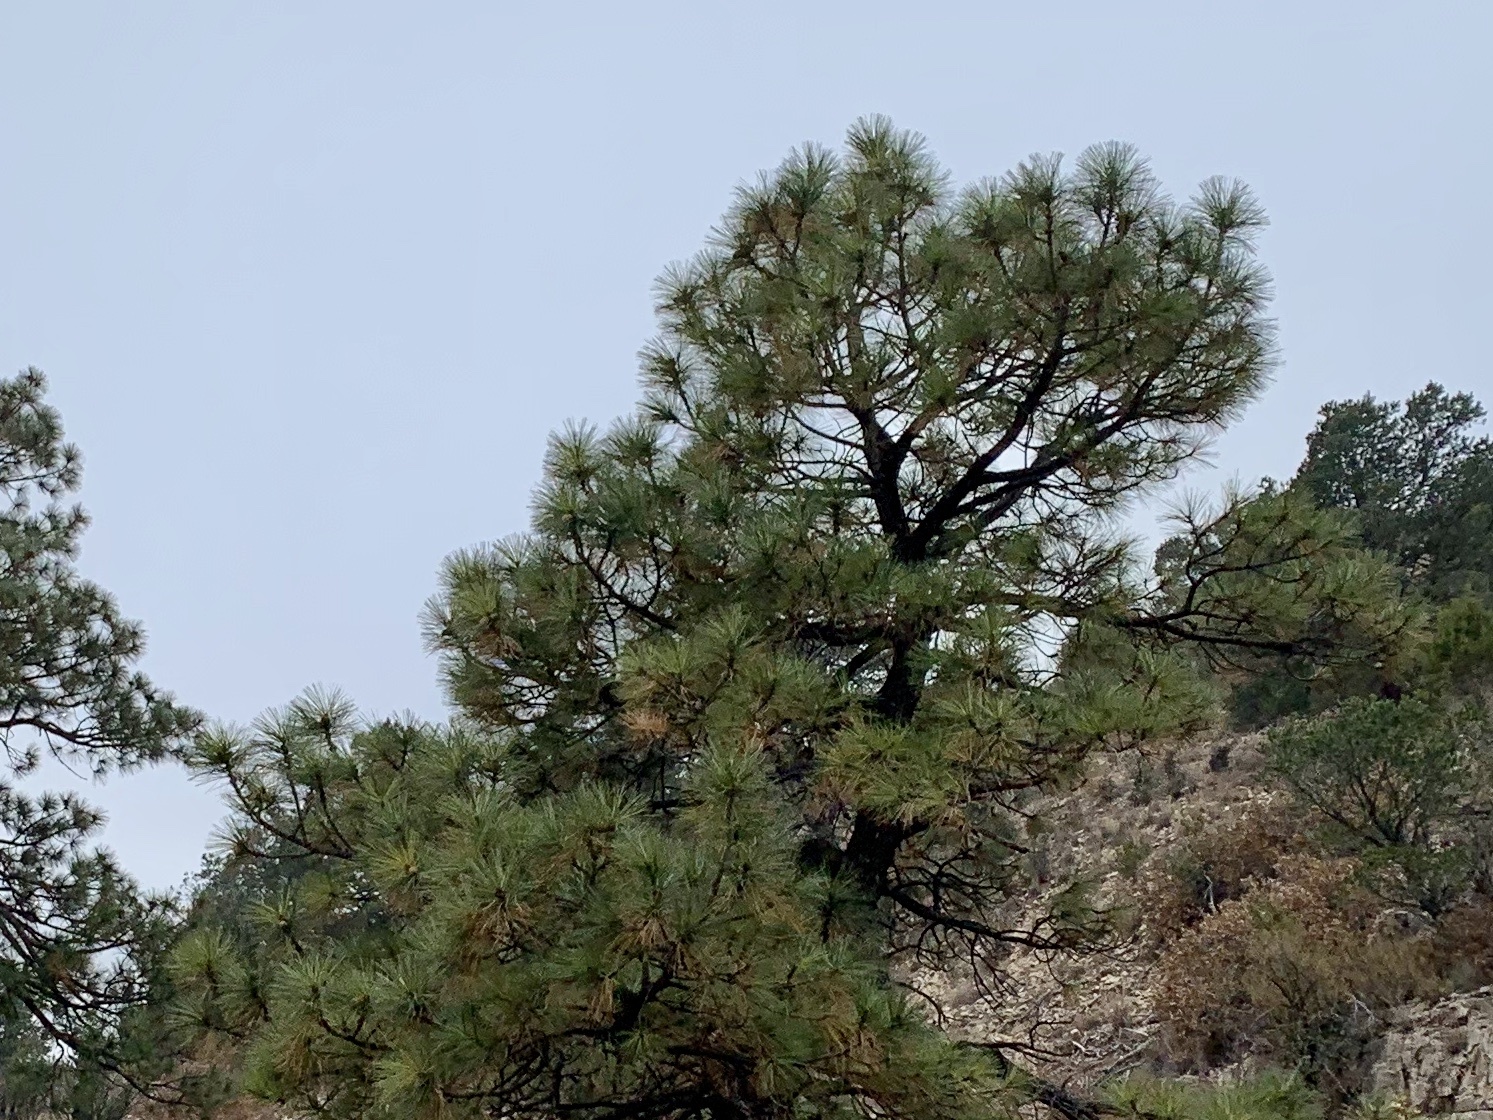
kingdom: Plantae
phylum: Tracheophyta
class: Pinopsida
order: Pinales
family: Pinaceae
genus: Pinus
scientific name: Pinus ponderosa
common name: Western yellow-pine
